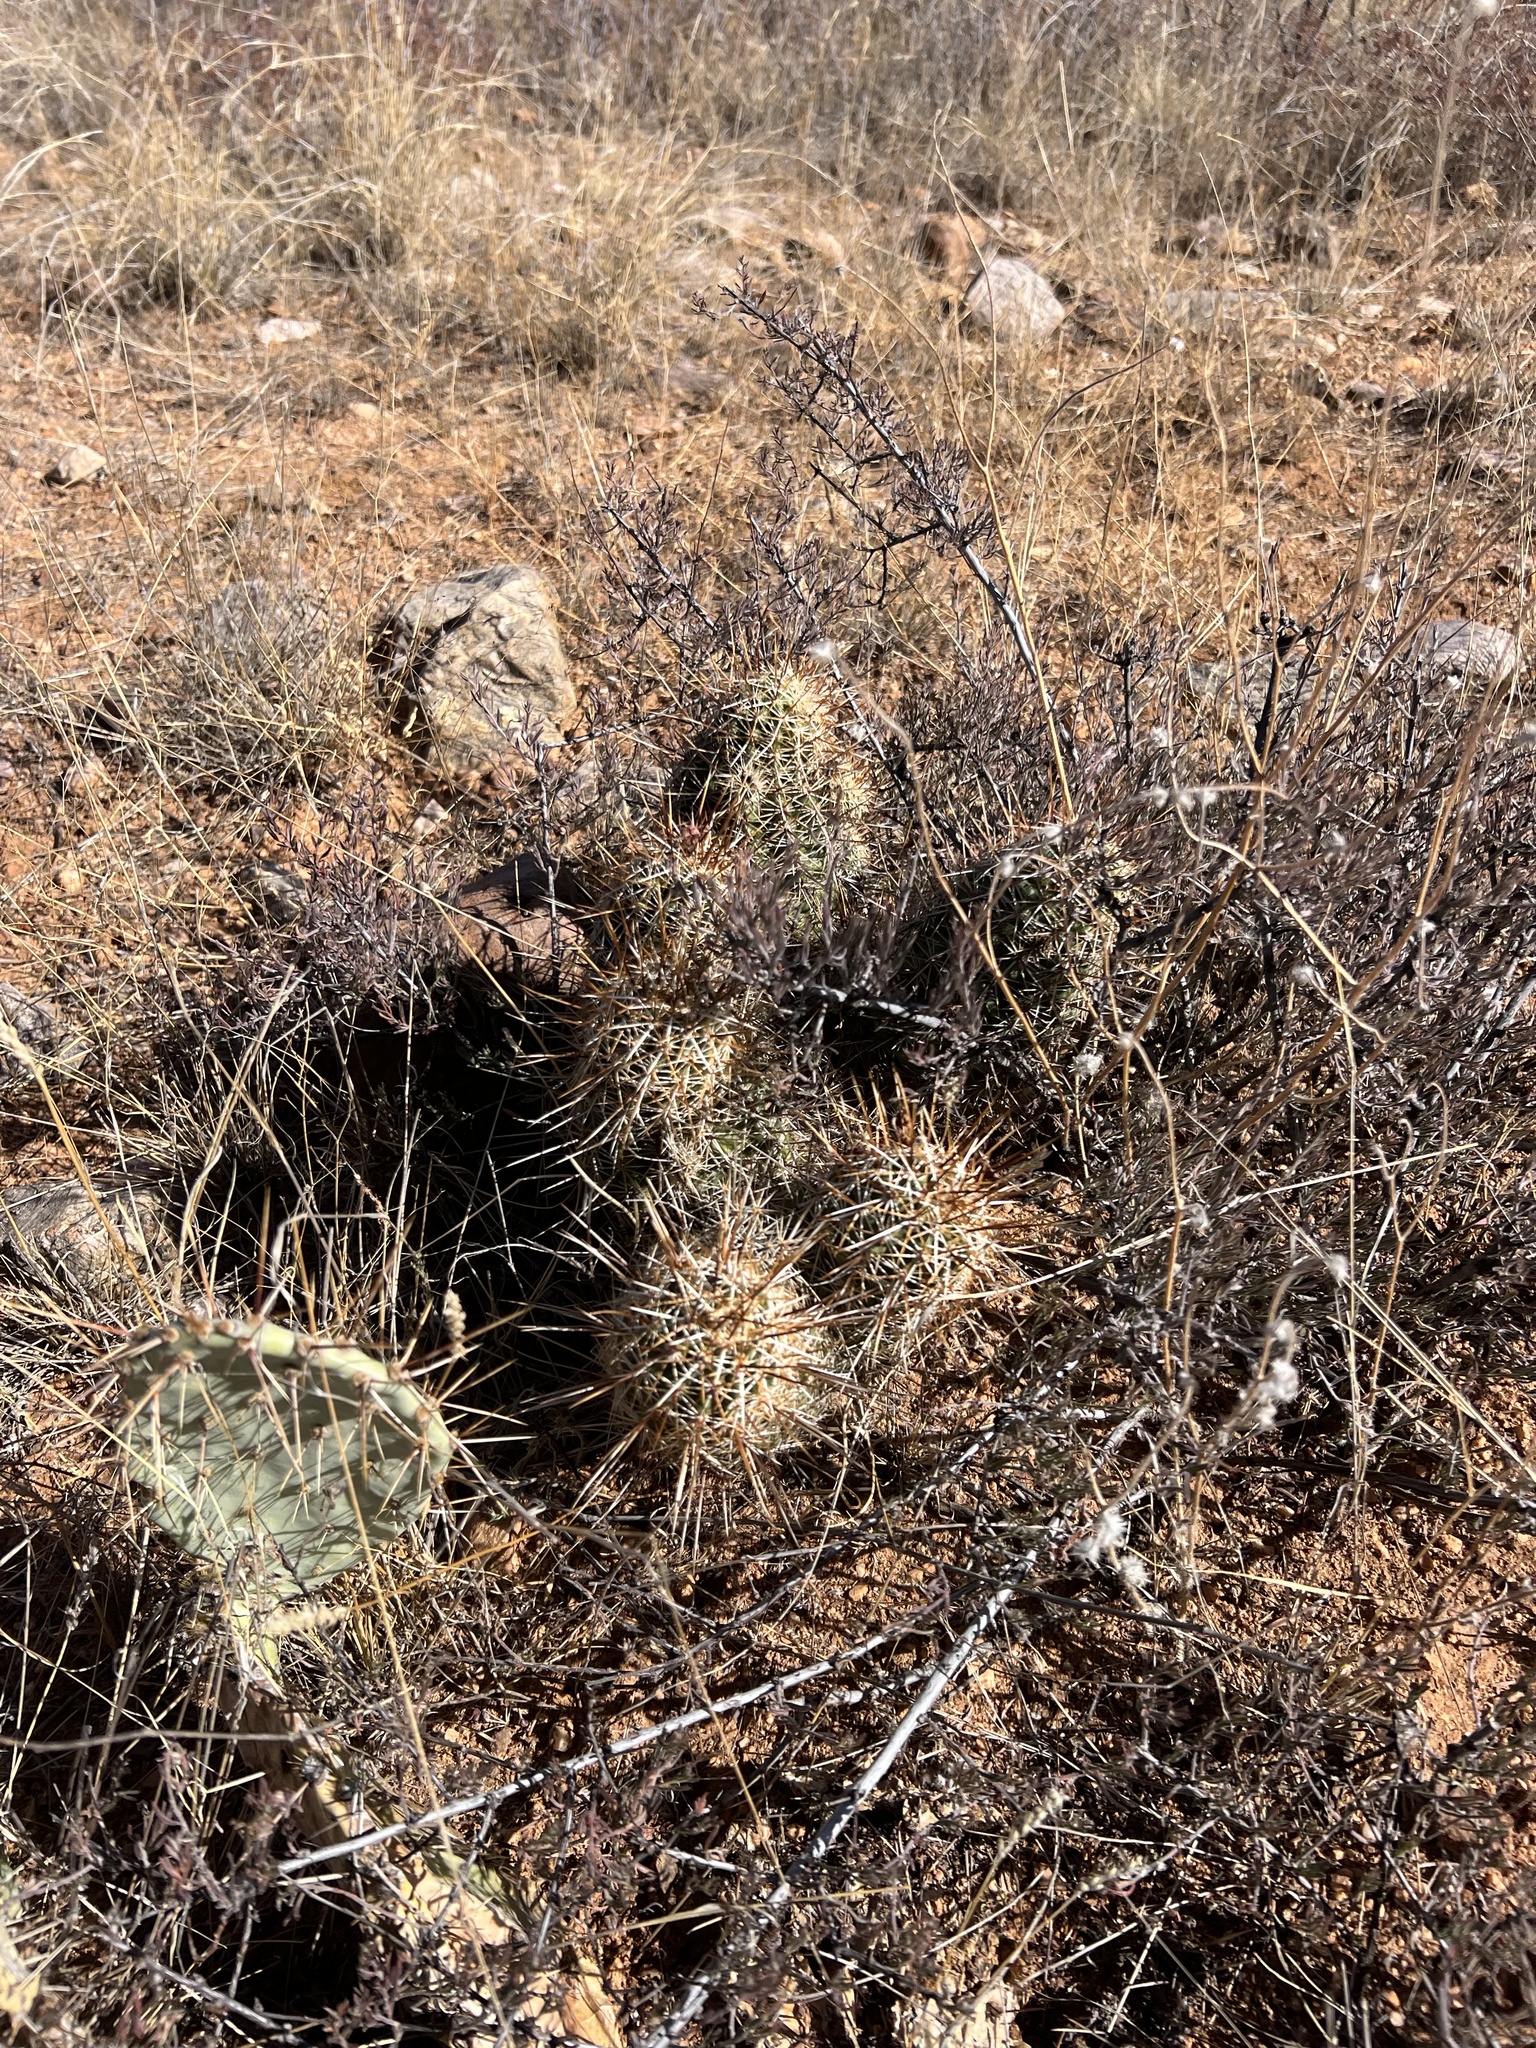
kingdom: Plantae
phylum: Tracheophyta
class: Magnoliopsida
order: Caryophyllales
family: Cactaceae
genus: Echinocereus
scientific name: Echinocereus fasciculatus
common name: Bundle hedgehog
